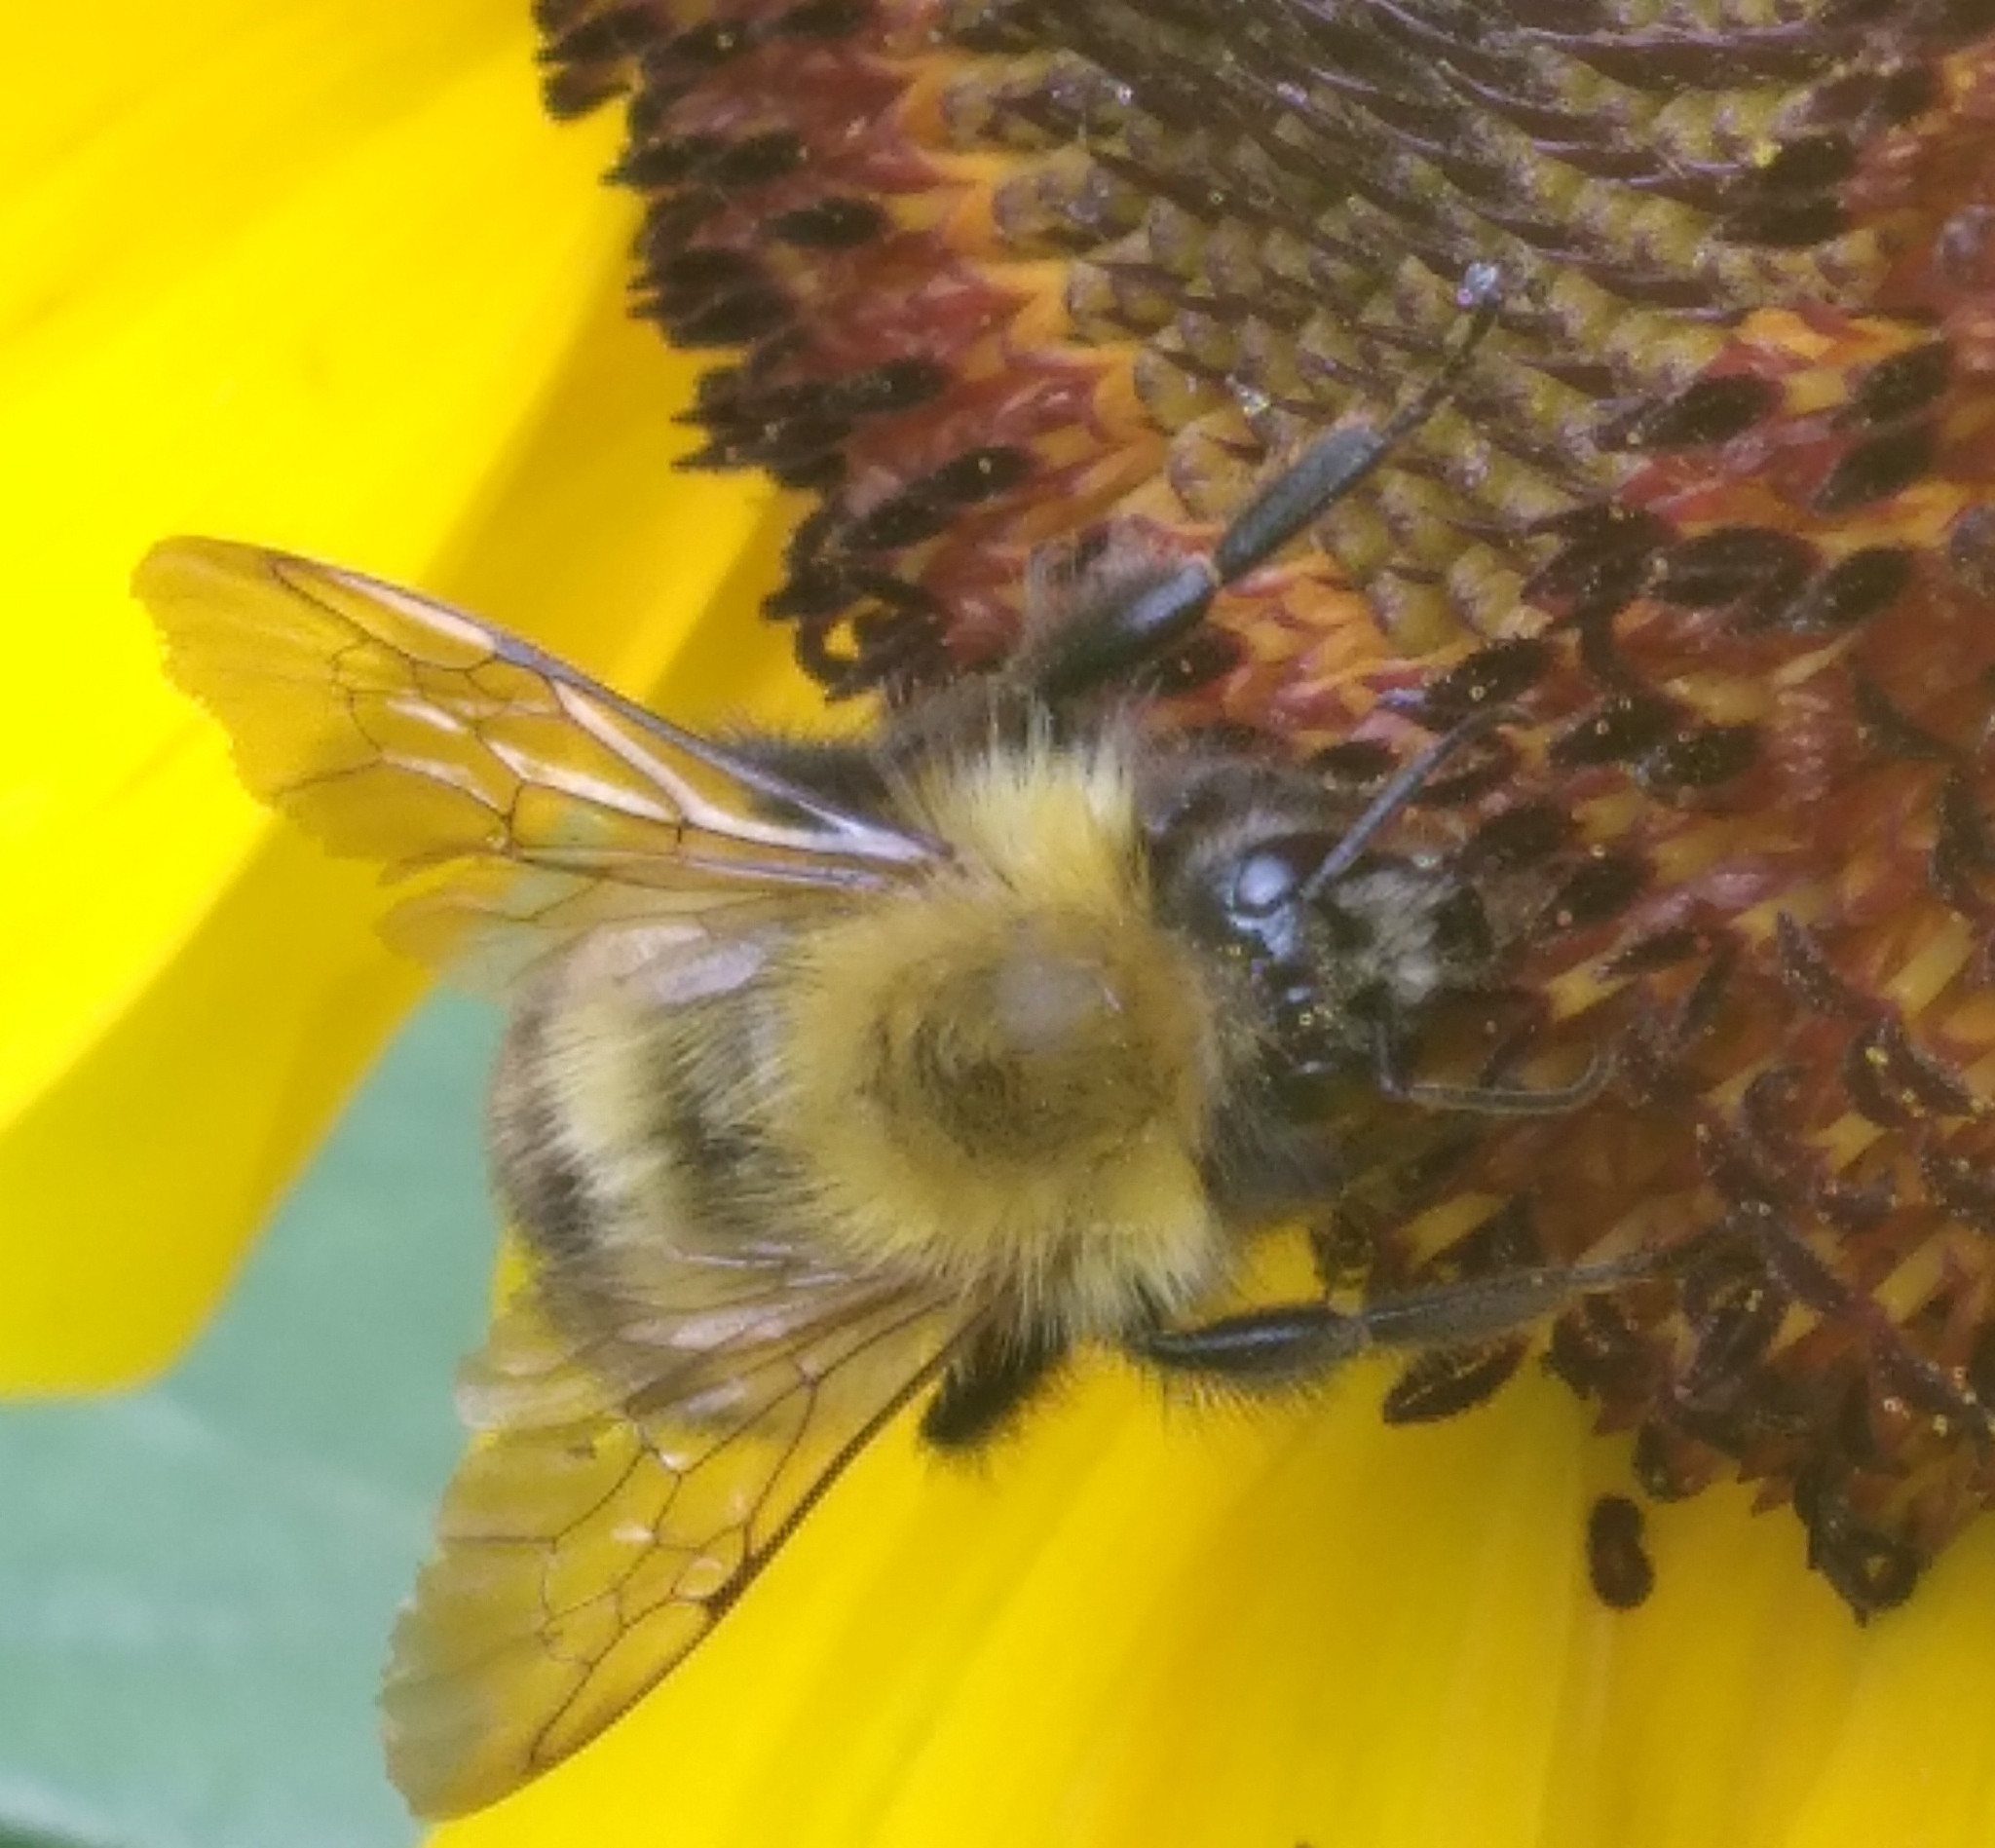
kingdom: Animalia
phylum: Arthropoda
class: Insecta
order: Hymenoptera
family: Apidae
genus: Bombus
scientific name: Bombus perplexus
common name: Confusing bumble bee
